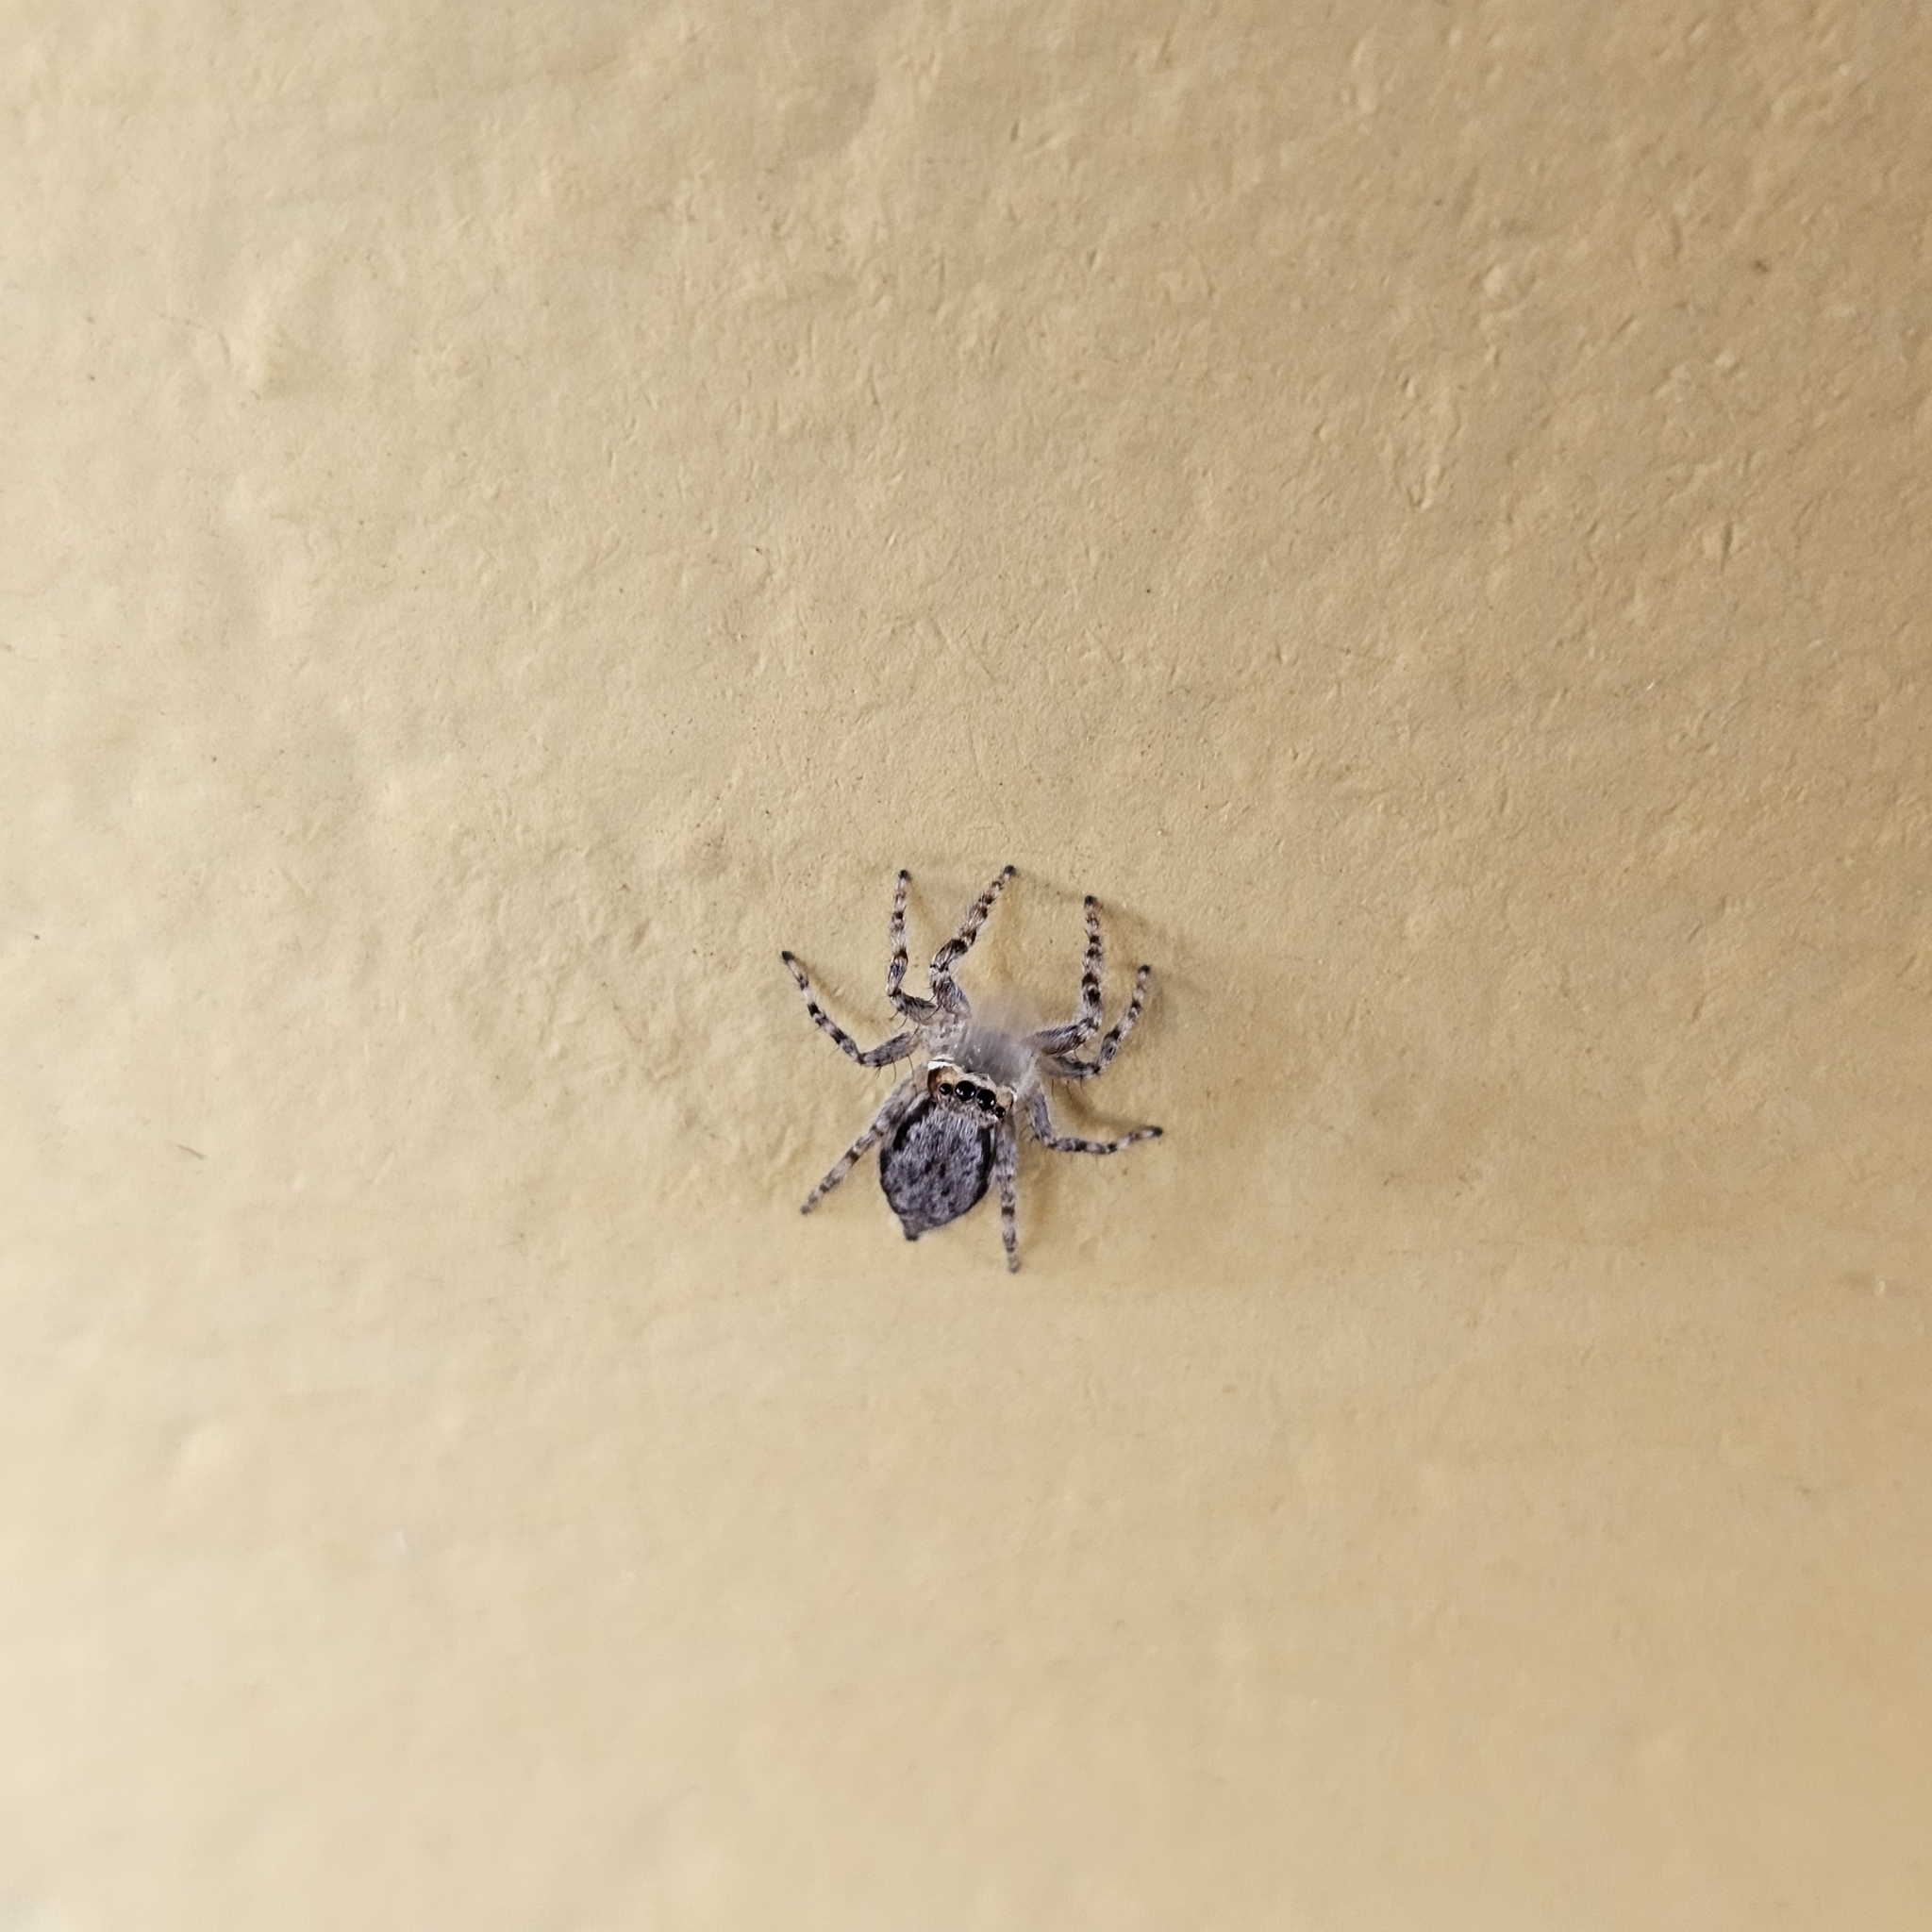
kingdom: Animalia
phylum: Arthropoda
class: Arachnida
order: Araneae
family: Salticidae
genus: Menemerus
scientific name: Menemerus bivittatus
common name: Gray wall jumper
